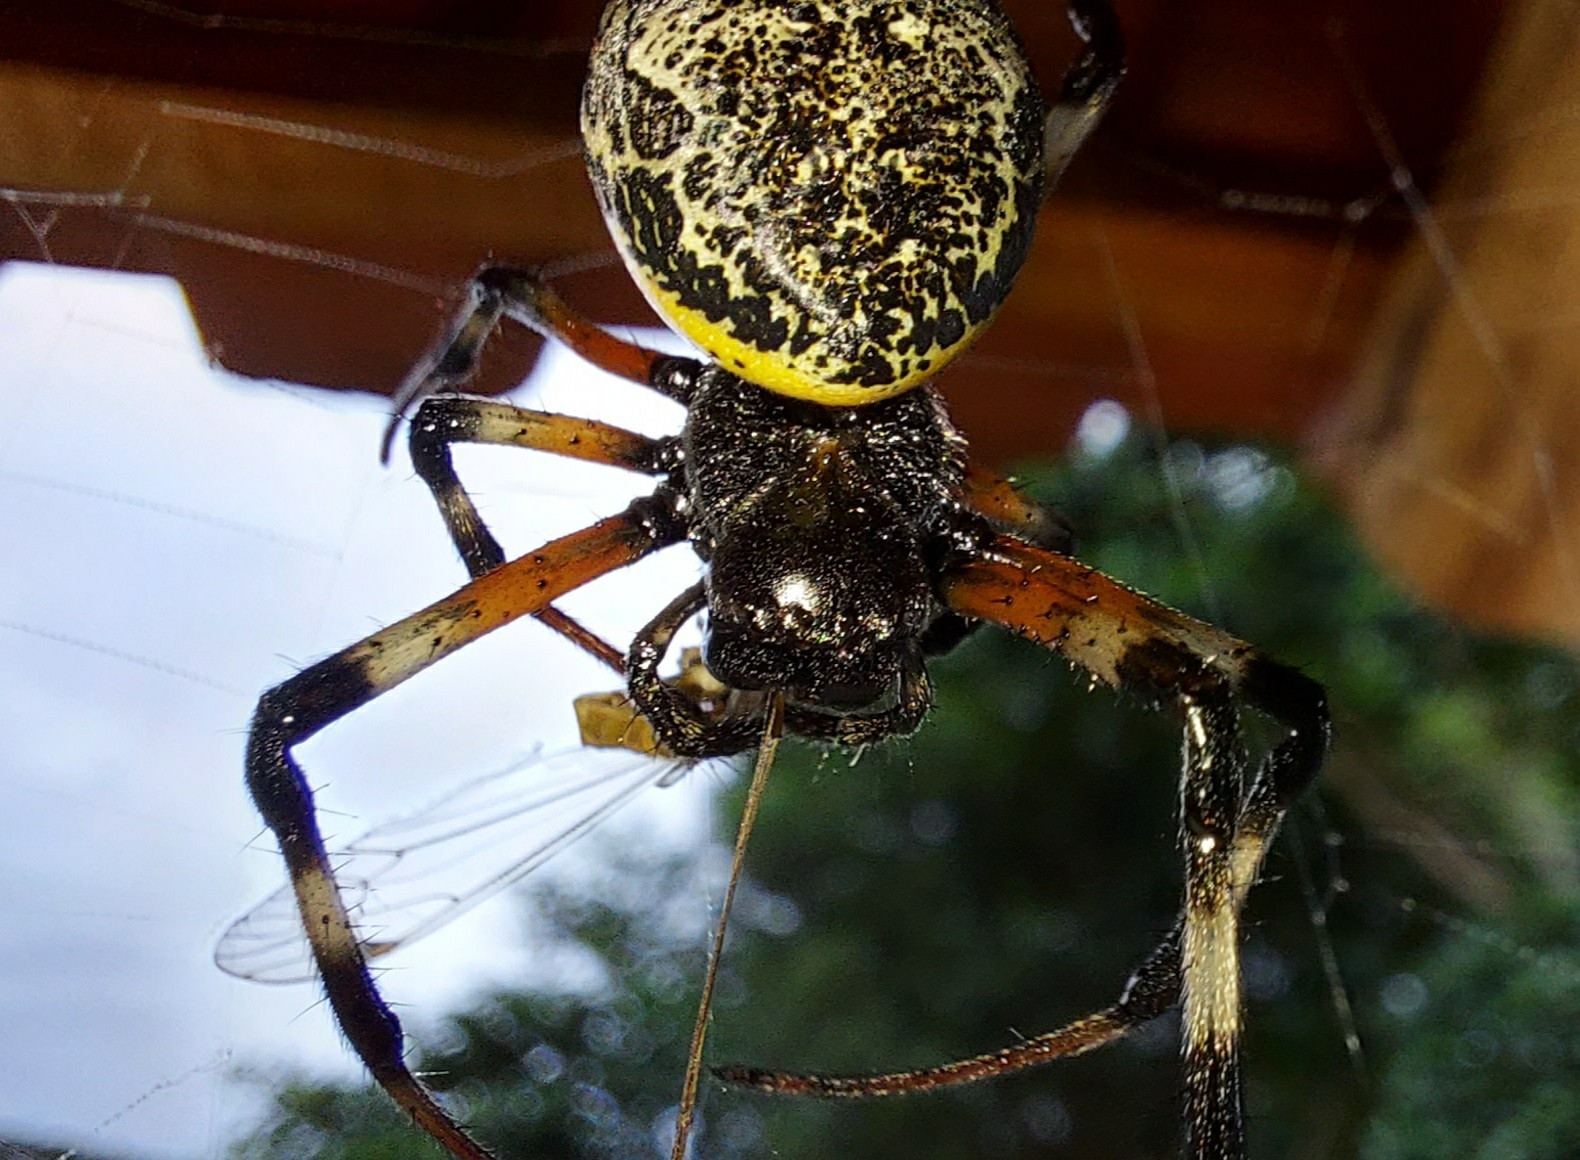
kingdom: Animalia
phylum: Arthropoda
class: Arachnida
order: Araneae
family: Araneidae
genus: Nephilingis
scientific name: Nephilingis cruentata
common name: African hermit spider
